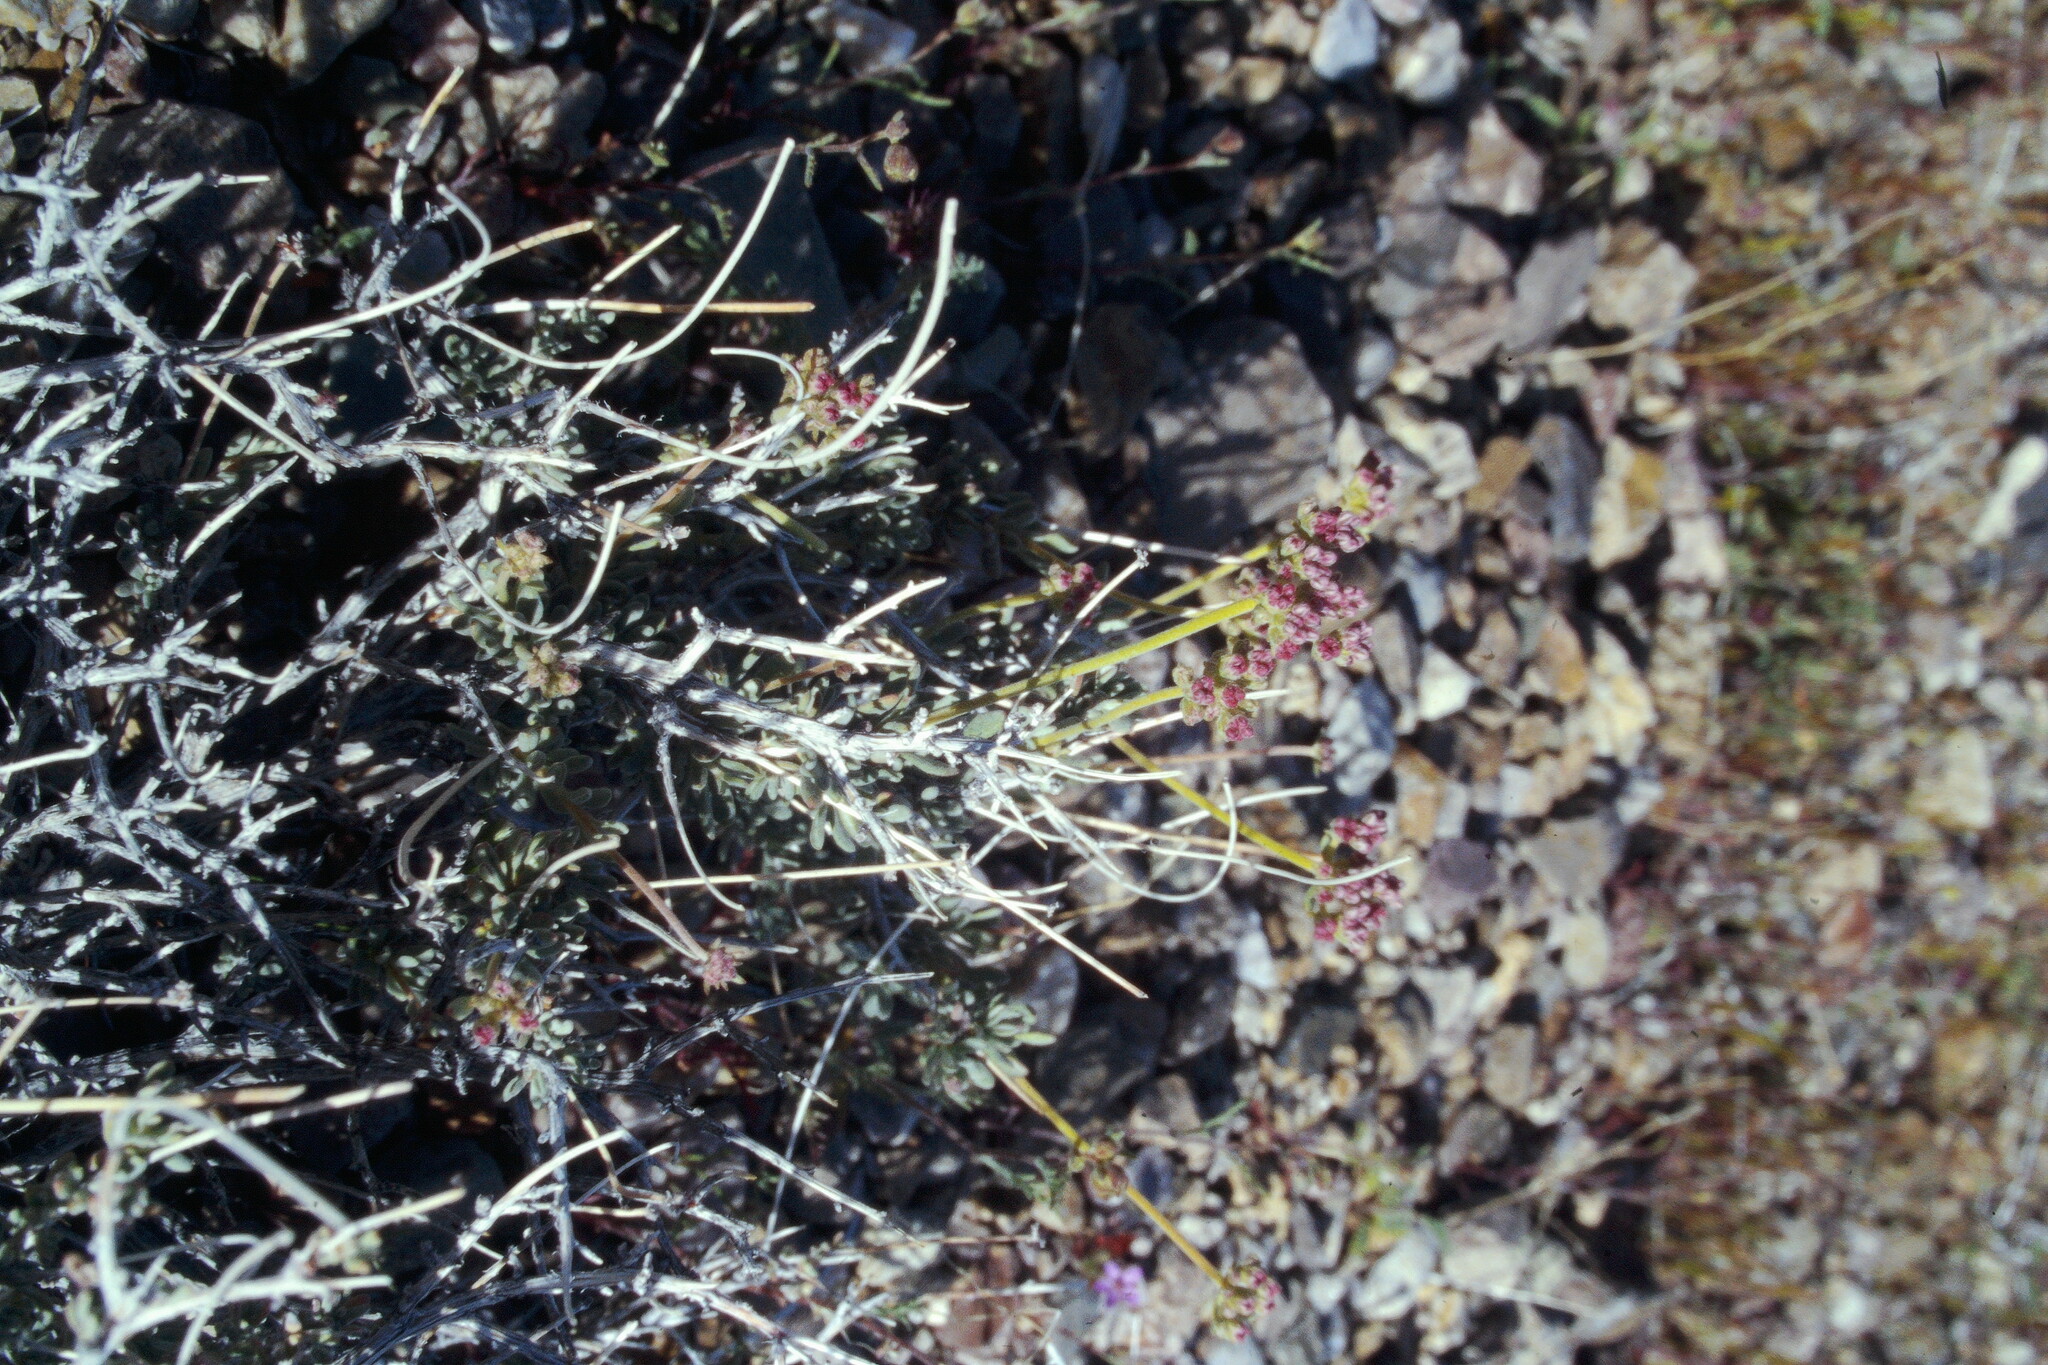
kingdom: Plantae
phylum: Tracheophyta
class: Magnoliopsida
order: Caryophyllales
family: Polygonaceae
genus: Eriogonum
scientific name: Eriogonum fasciculatum
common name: California wild buckwheat
